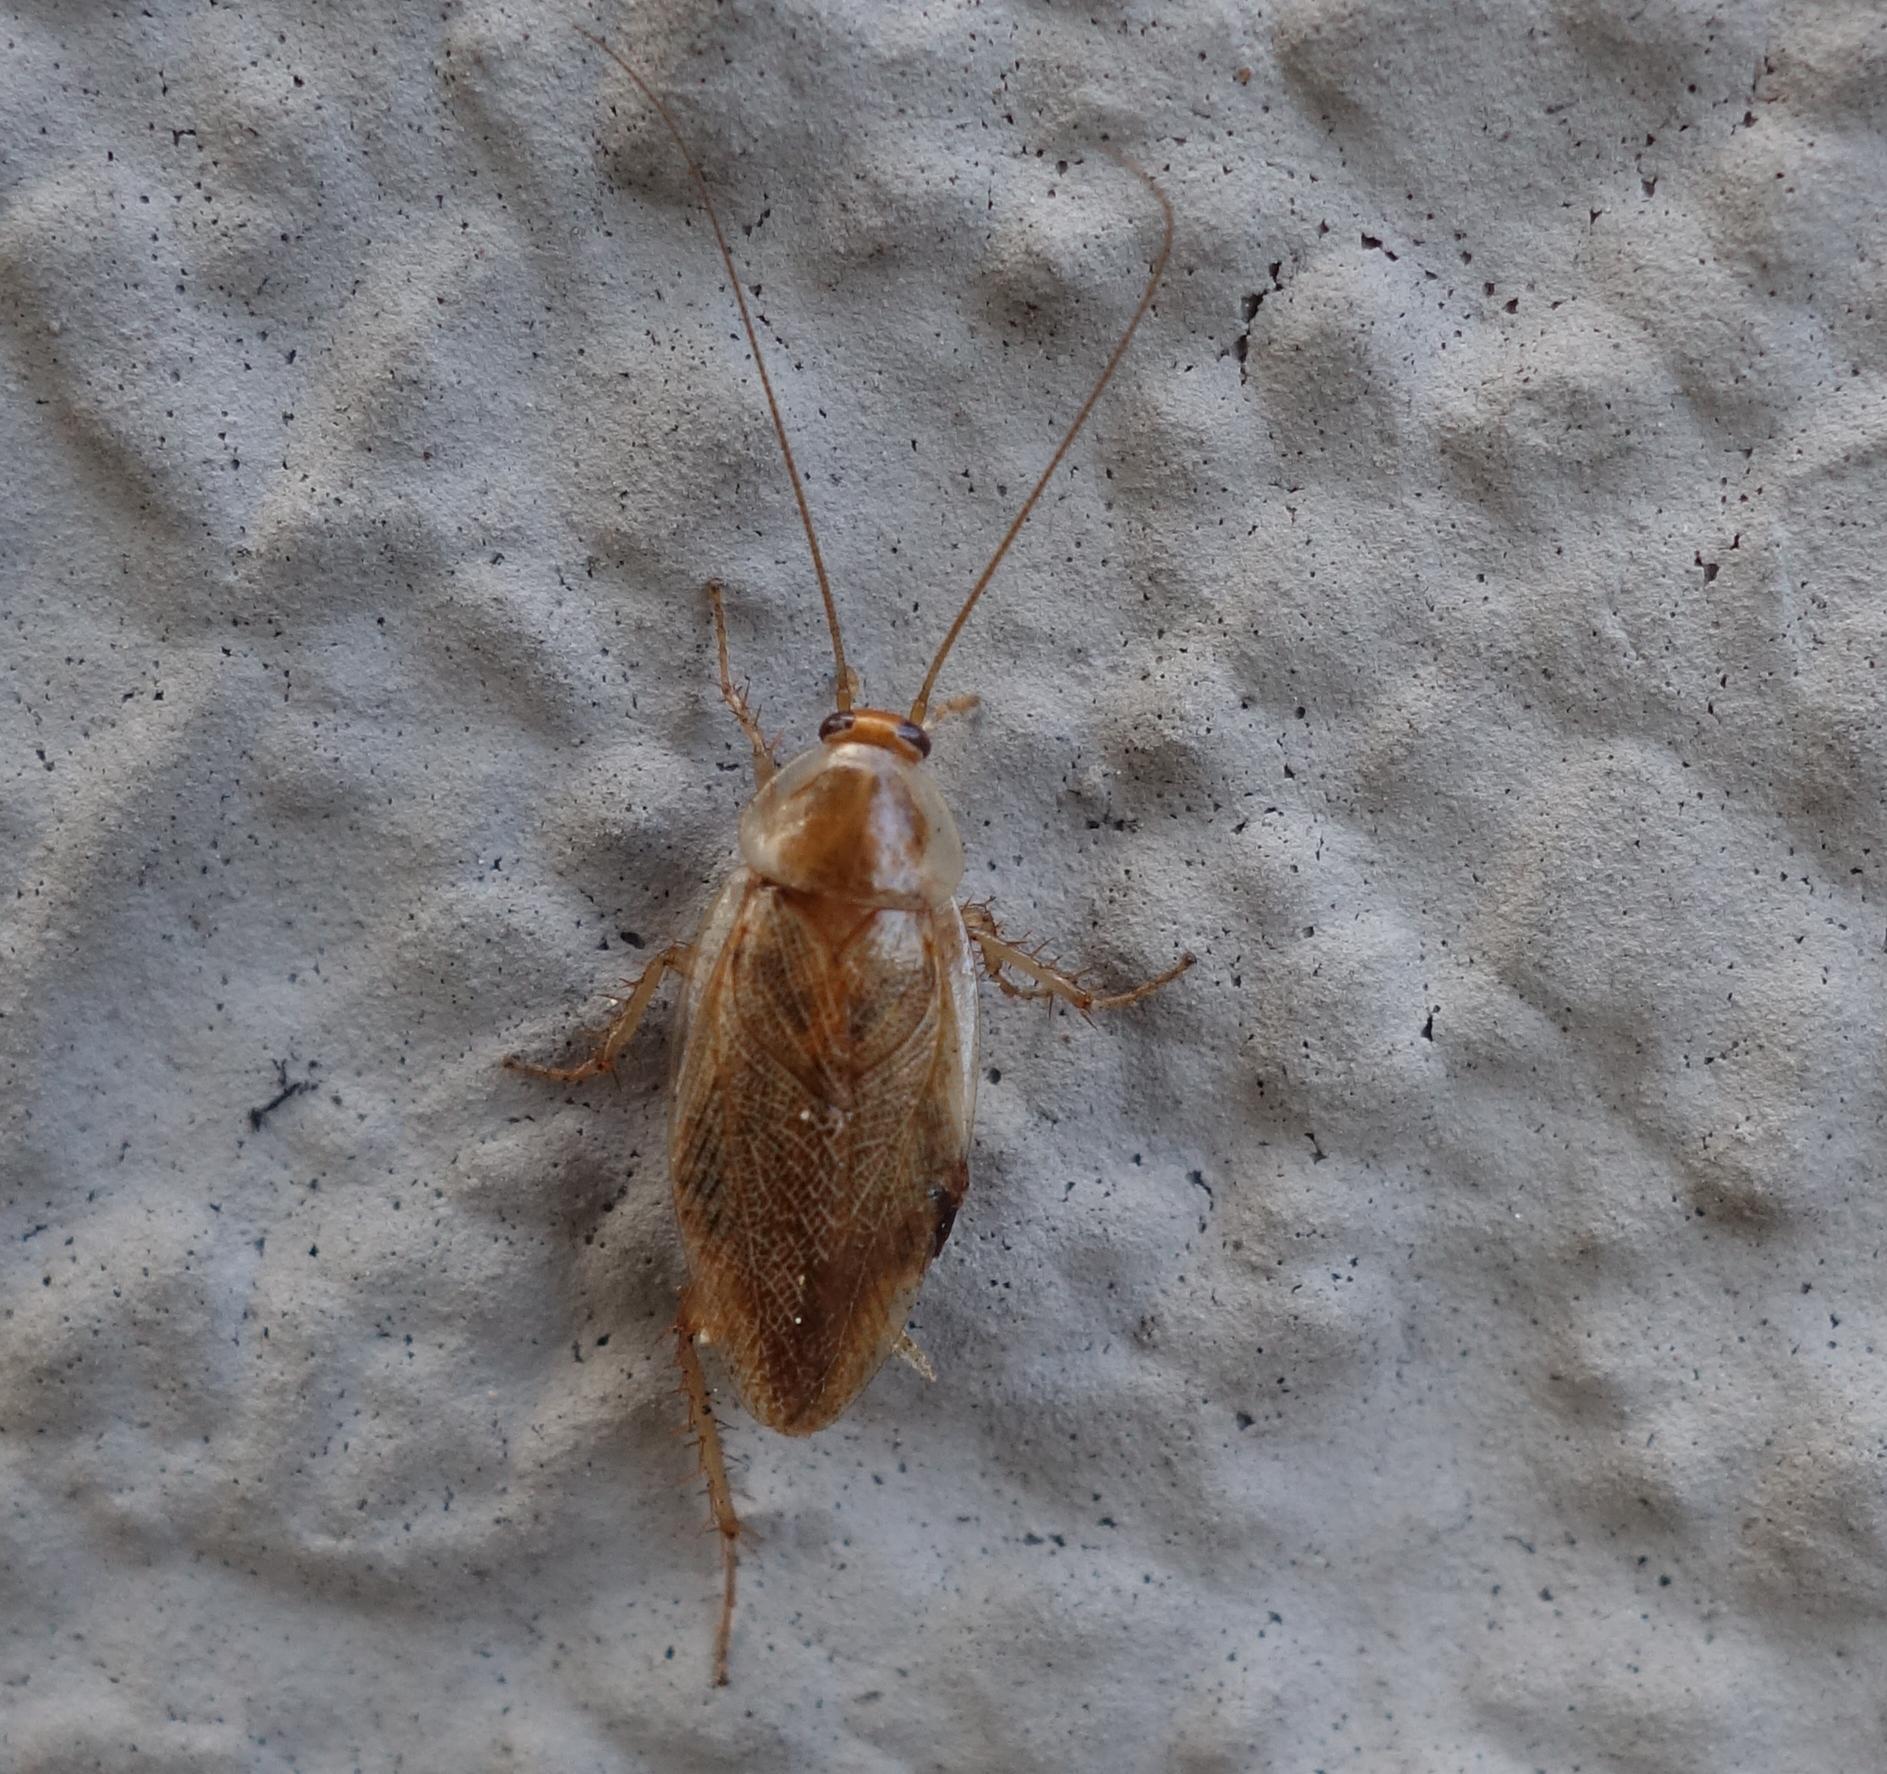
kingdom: Animalia
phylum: Arthropoda
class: Insecta
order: Blattodea
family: Ectobiidae
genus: Ectobius
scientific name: Ectobius vittiventris
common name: Garden cockroach
